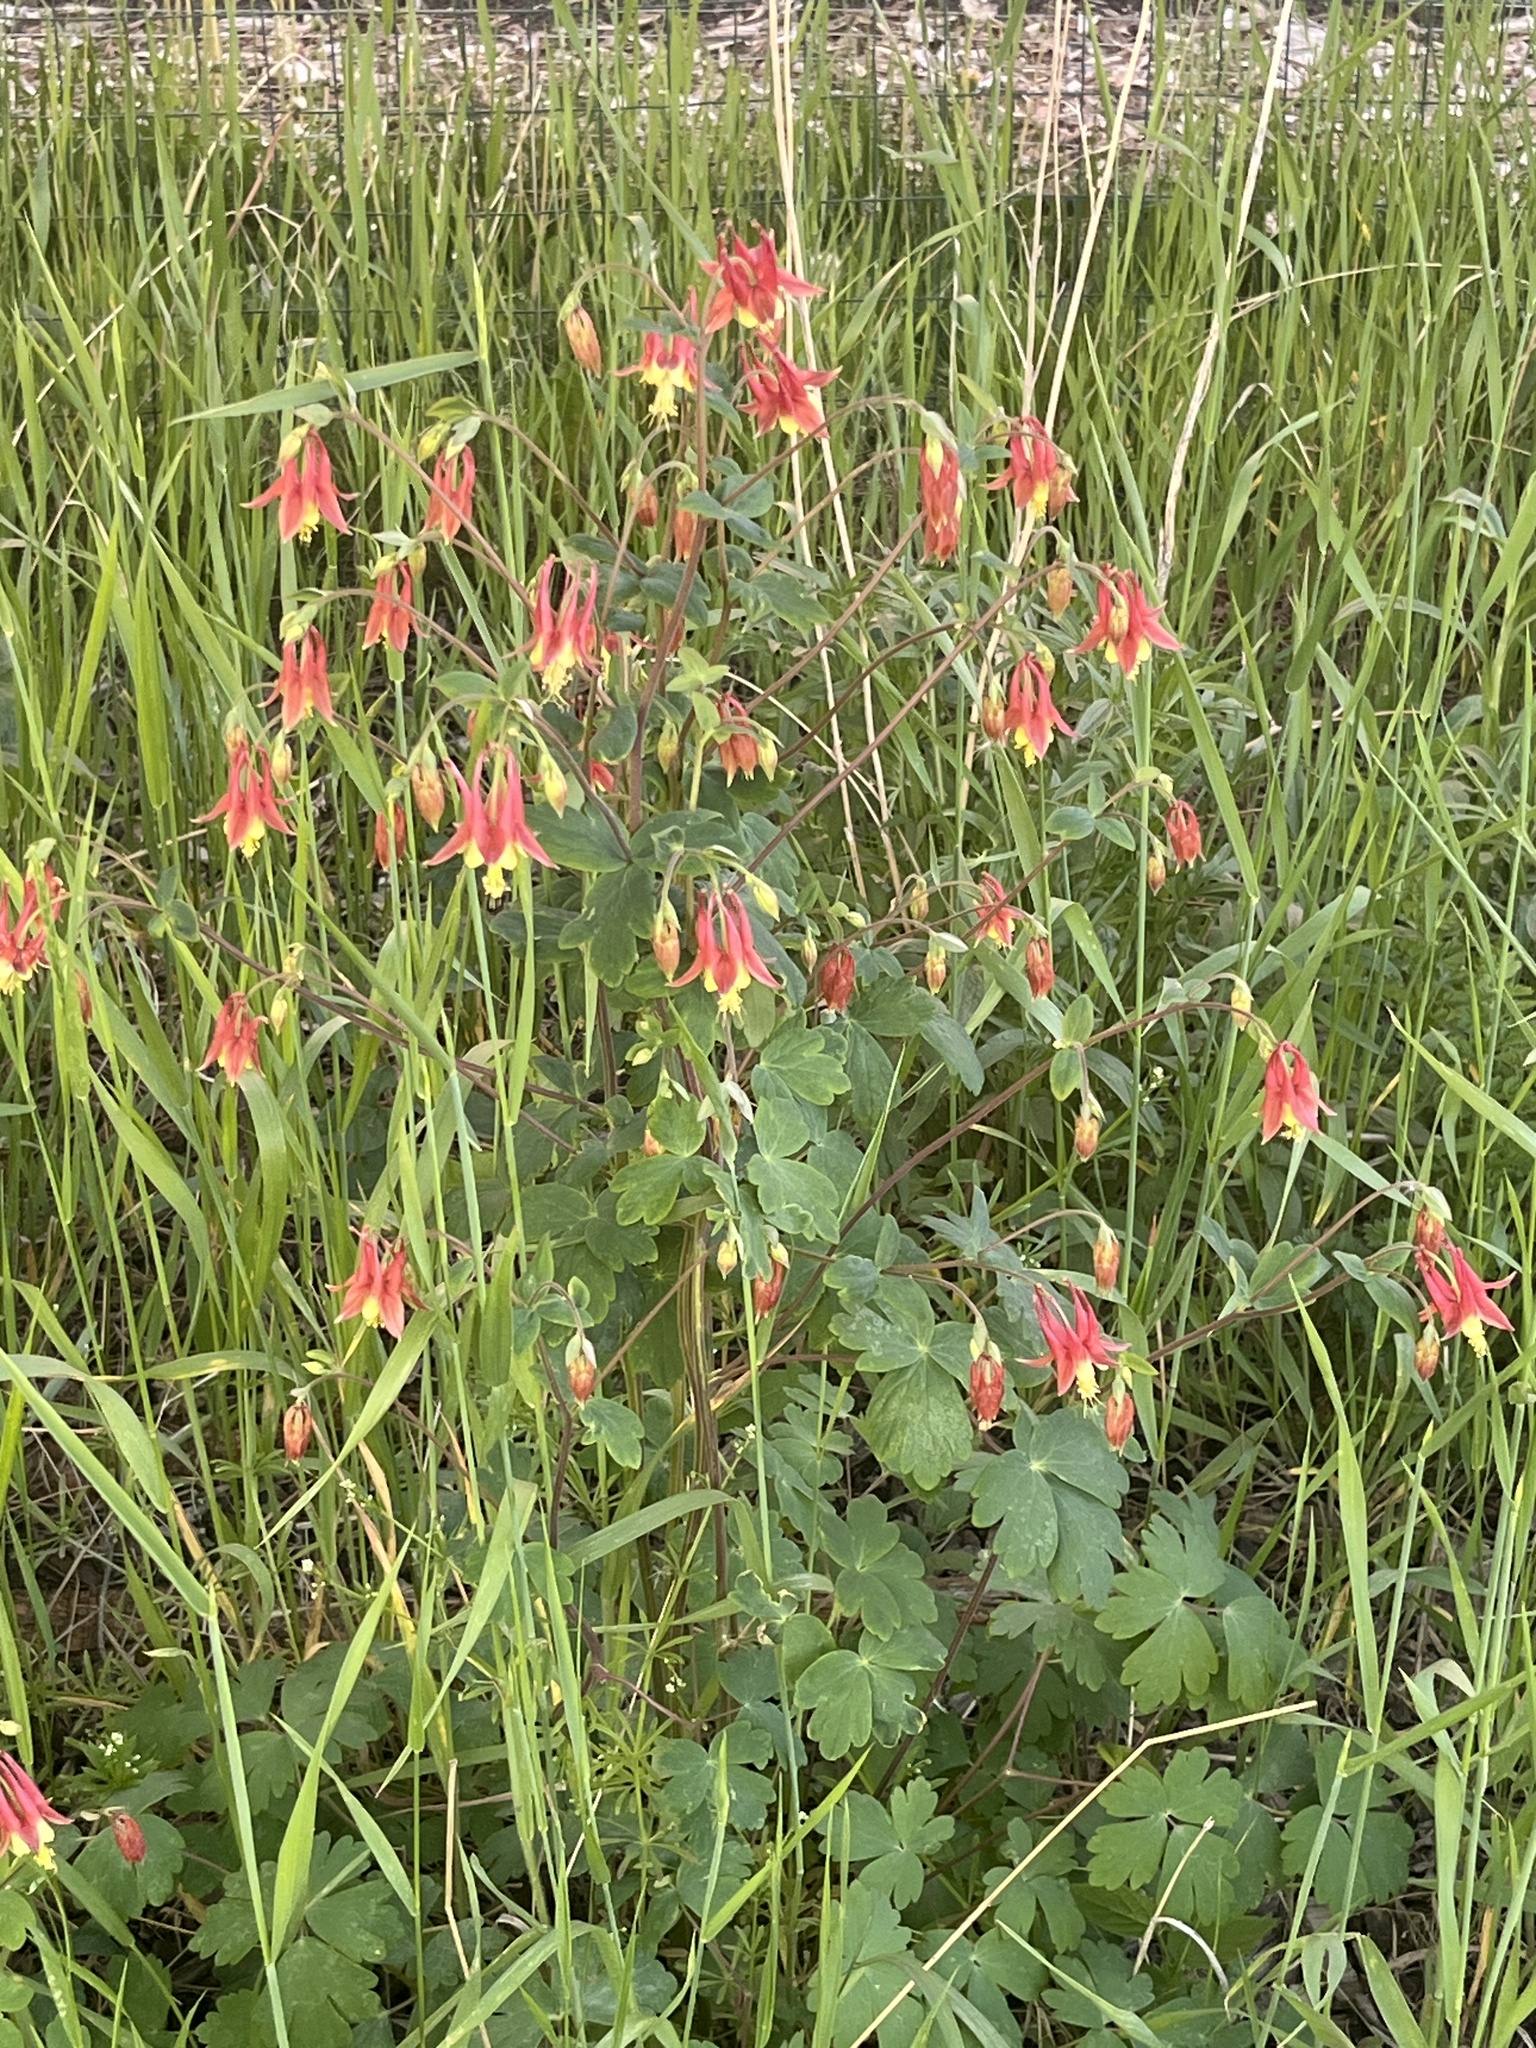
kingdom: Plantae
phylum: Tracheophyta
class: Magnoliopsida
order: Ranunculales
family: Ranunculaceae
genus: Aquilegia
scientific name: Aquilegia canadensis
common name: American columbine
